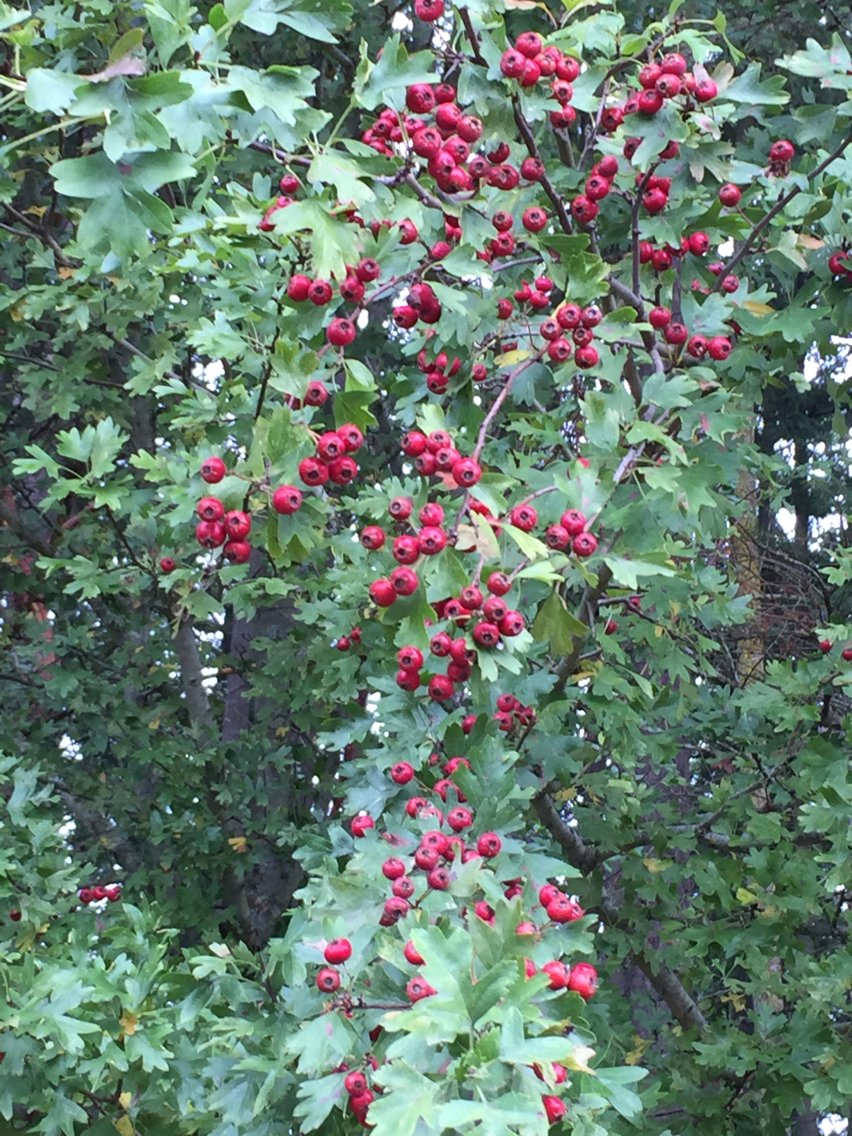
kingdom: Plantae
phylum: Tracheophyta
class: Magnoliopsida
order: Rosales
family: Rosaceae
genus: Crataegus
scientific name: Crataegus monogyna
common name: Hawthorn
